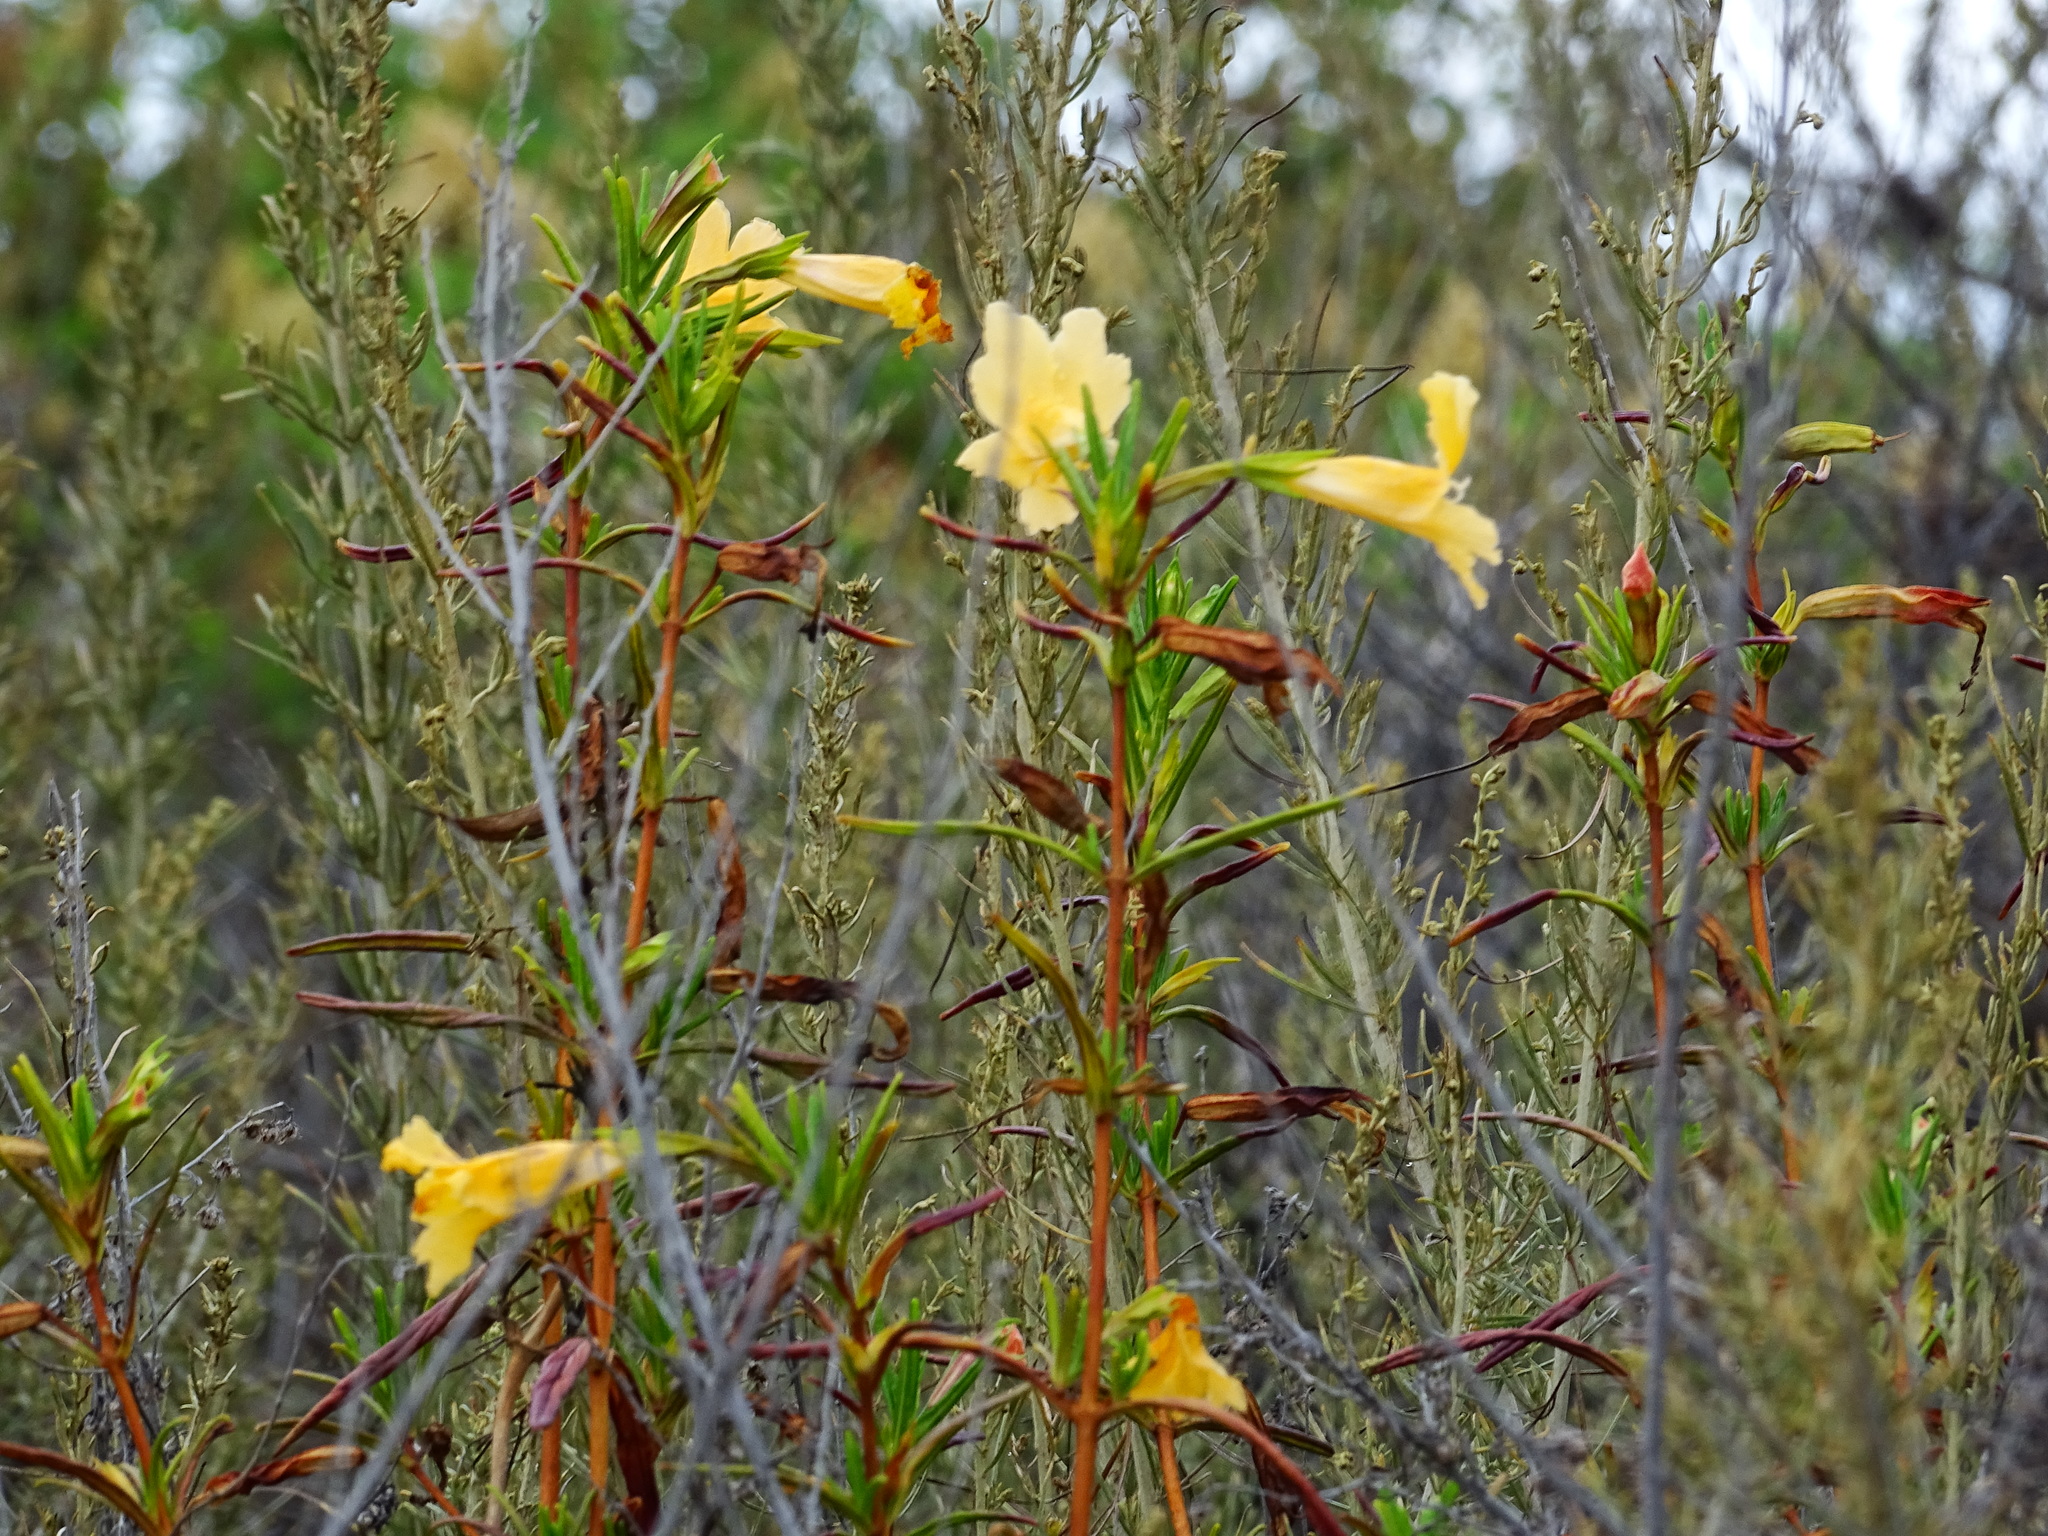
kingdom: Plantae
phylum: Tracheophyta
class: Magnoliopsida
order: Lamiales
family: Phrymaceae
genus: Diplacus
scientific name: Diplacus australis
